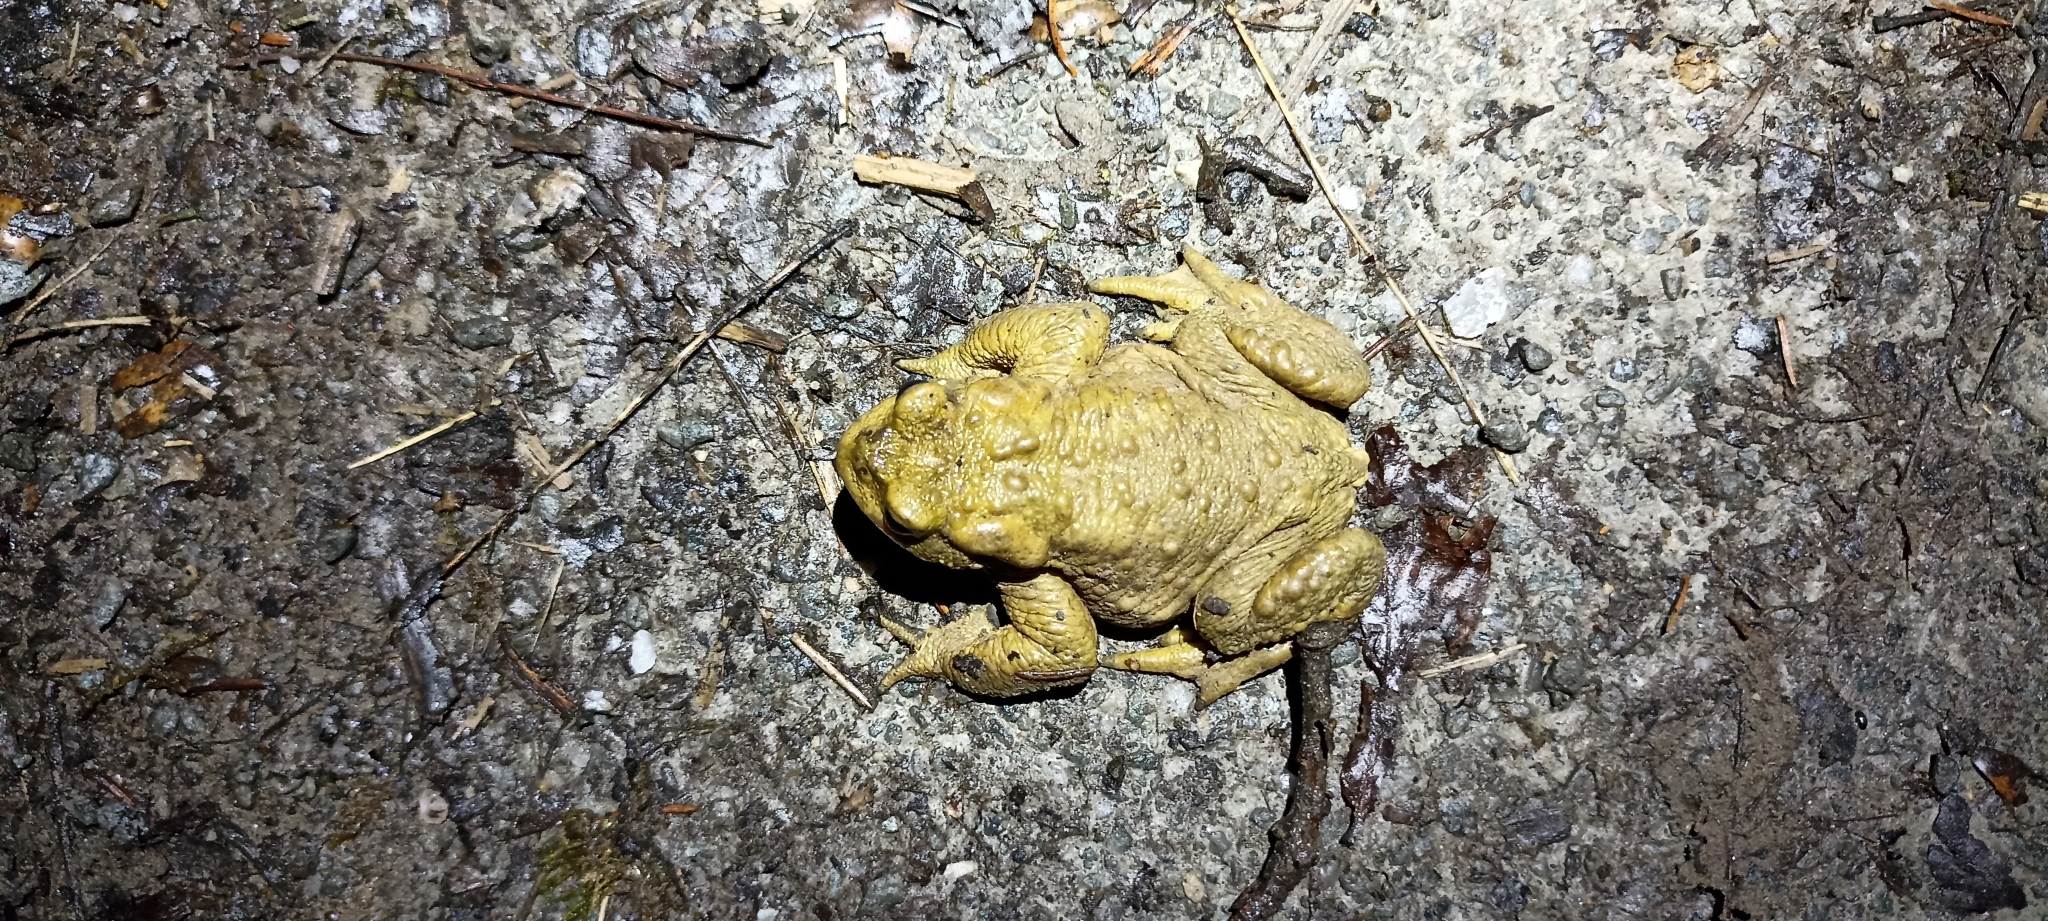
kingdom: Animalia
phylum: Chordata
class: Amphibia
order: Anura
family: Bufonidae
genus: Bufo
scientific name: Bufo spinosus
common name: Western common toad
